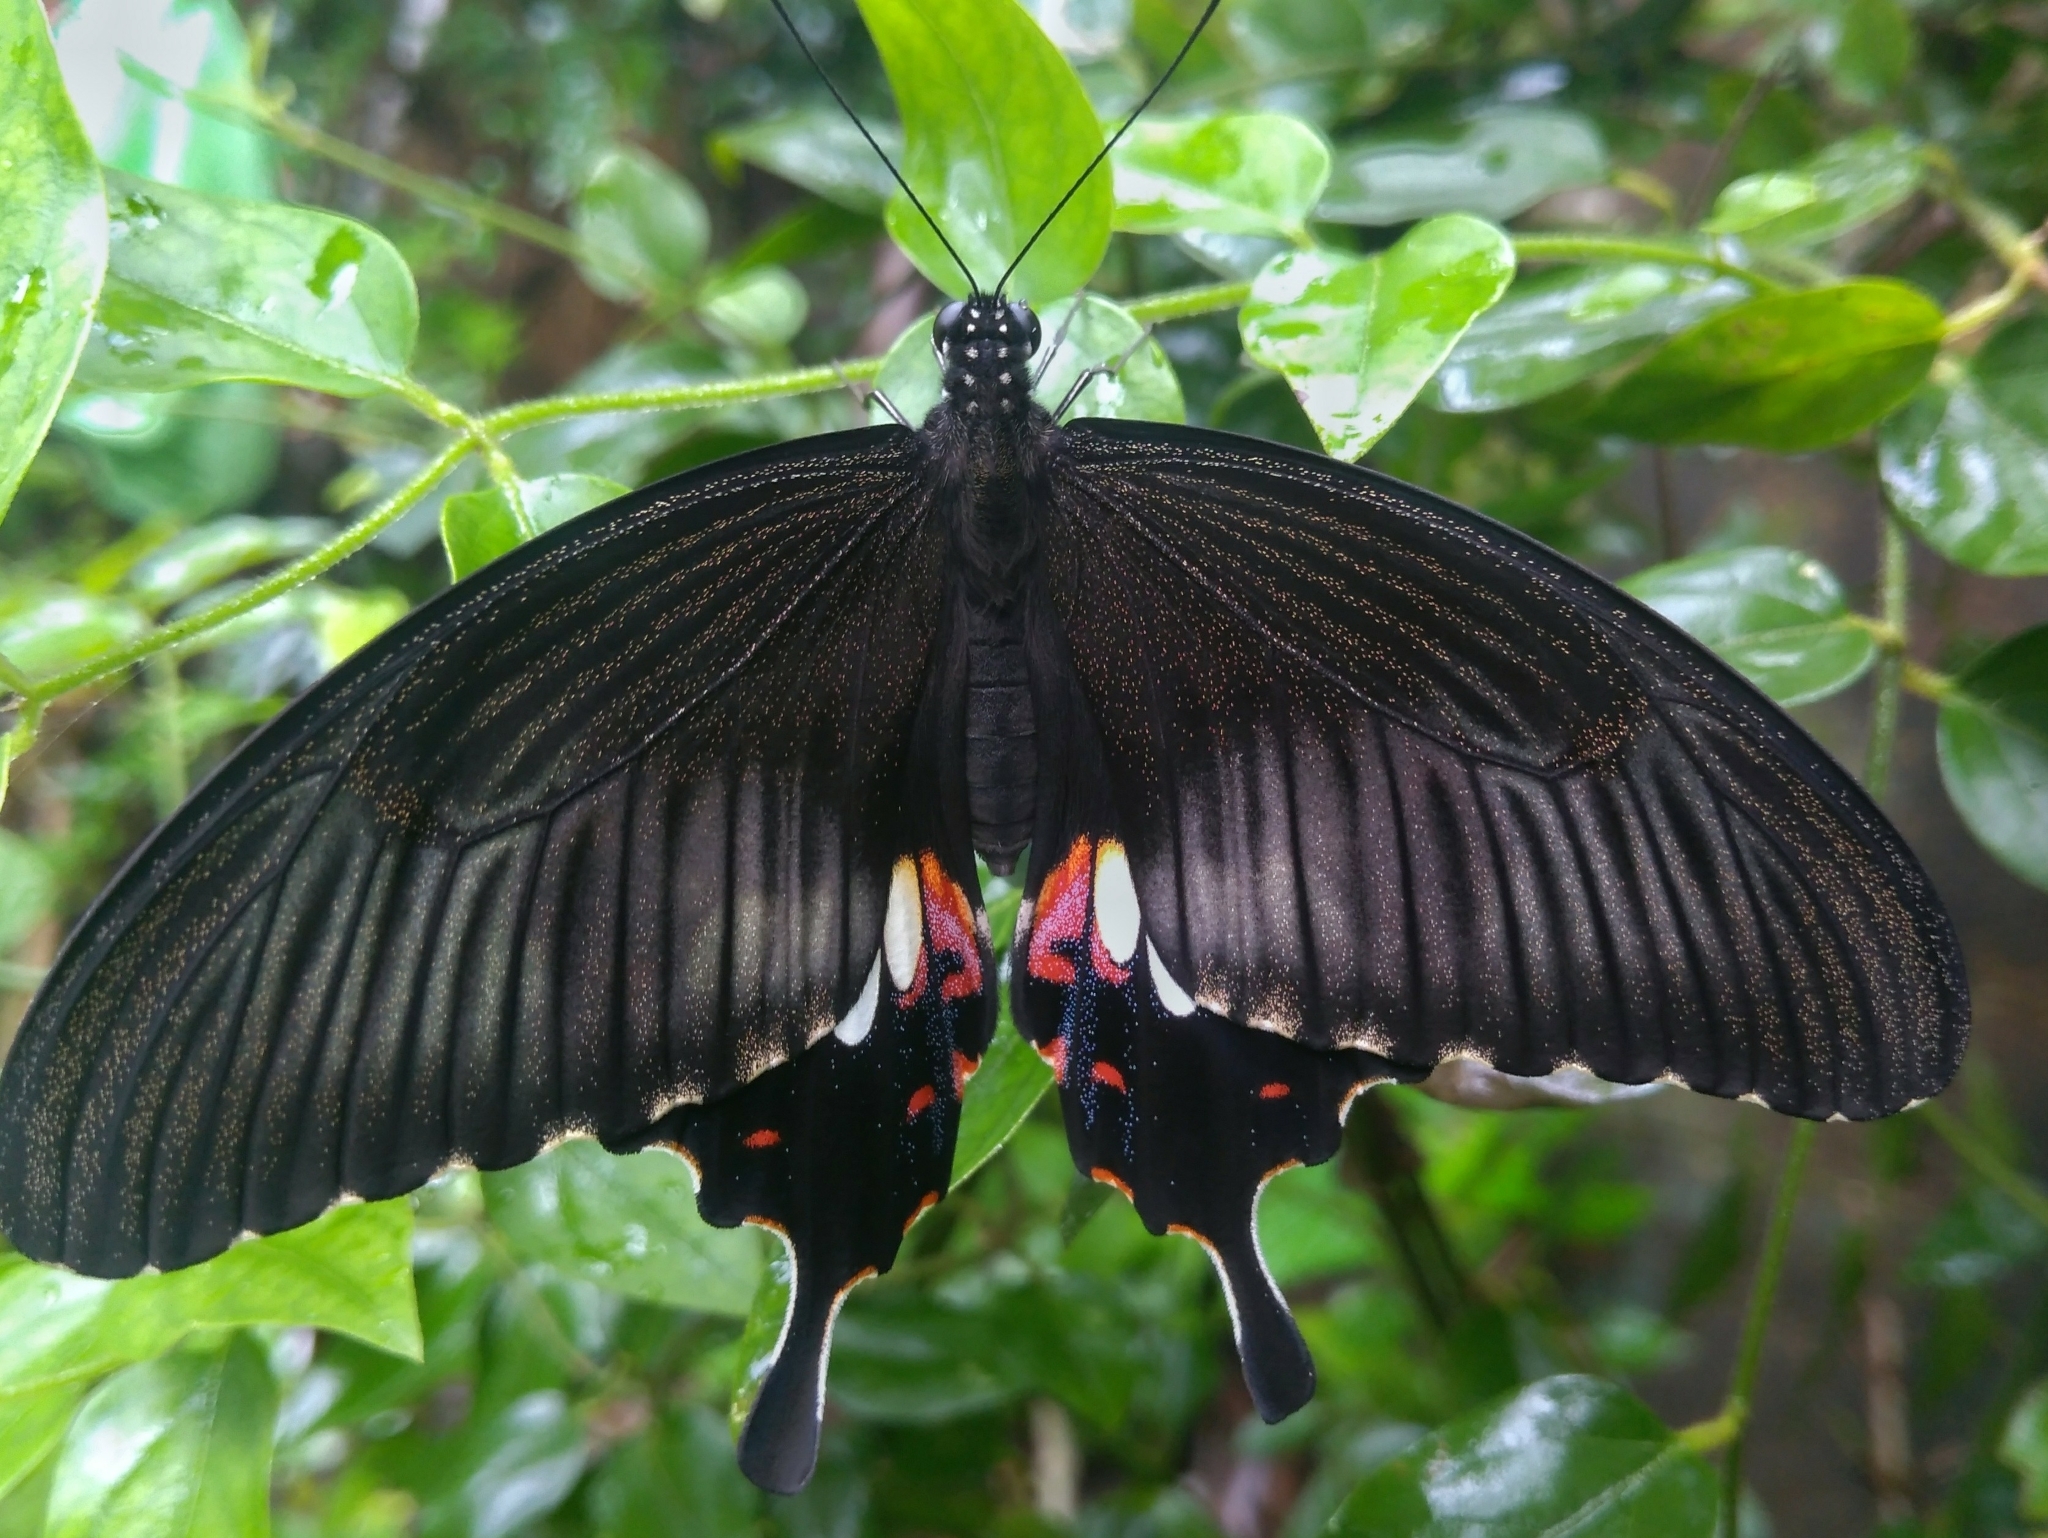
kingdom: Animalia
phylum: Arthropoda
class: Insecta
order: Lepidoptera
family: Papilionidae
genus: Papilio
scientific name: Papilio polytes
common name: Common mormon
